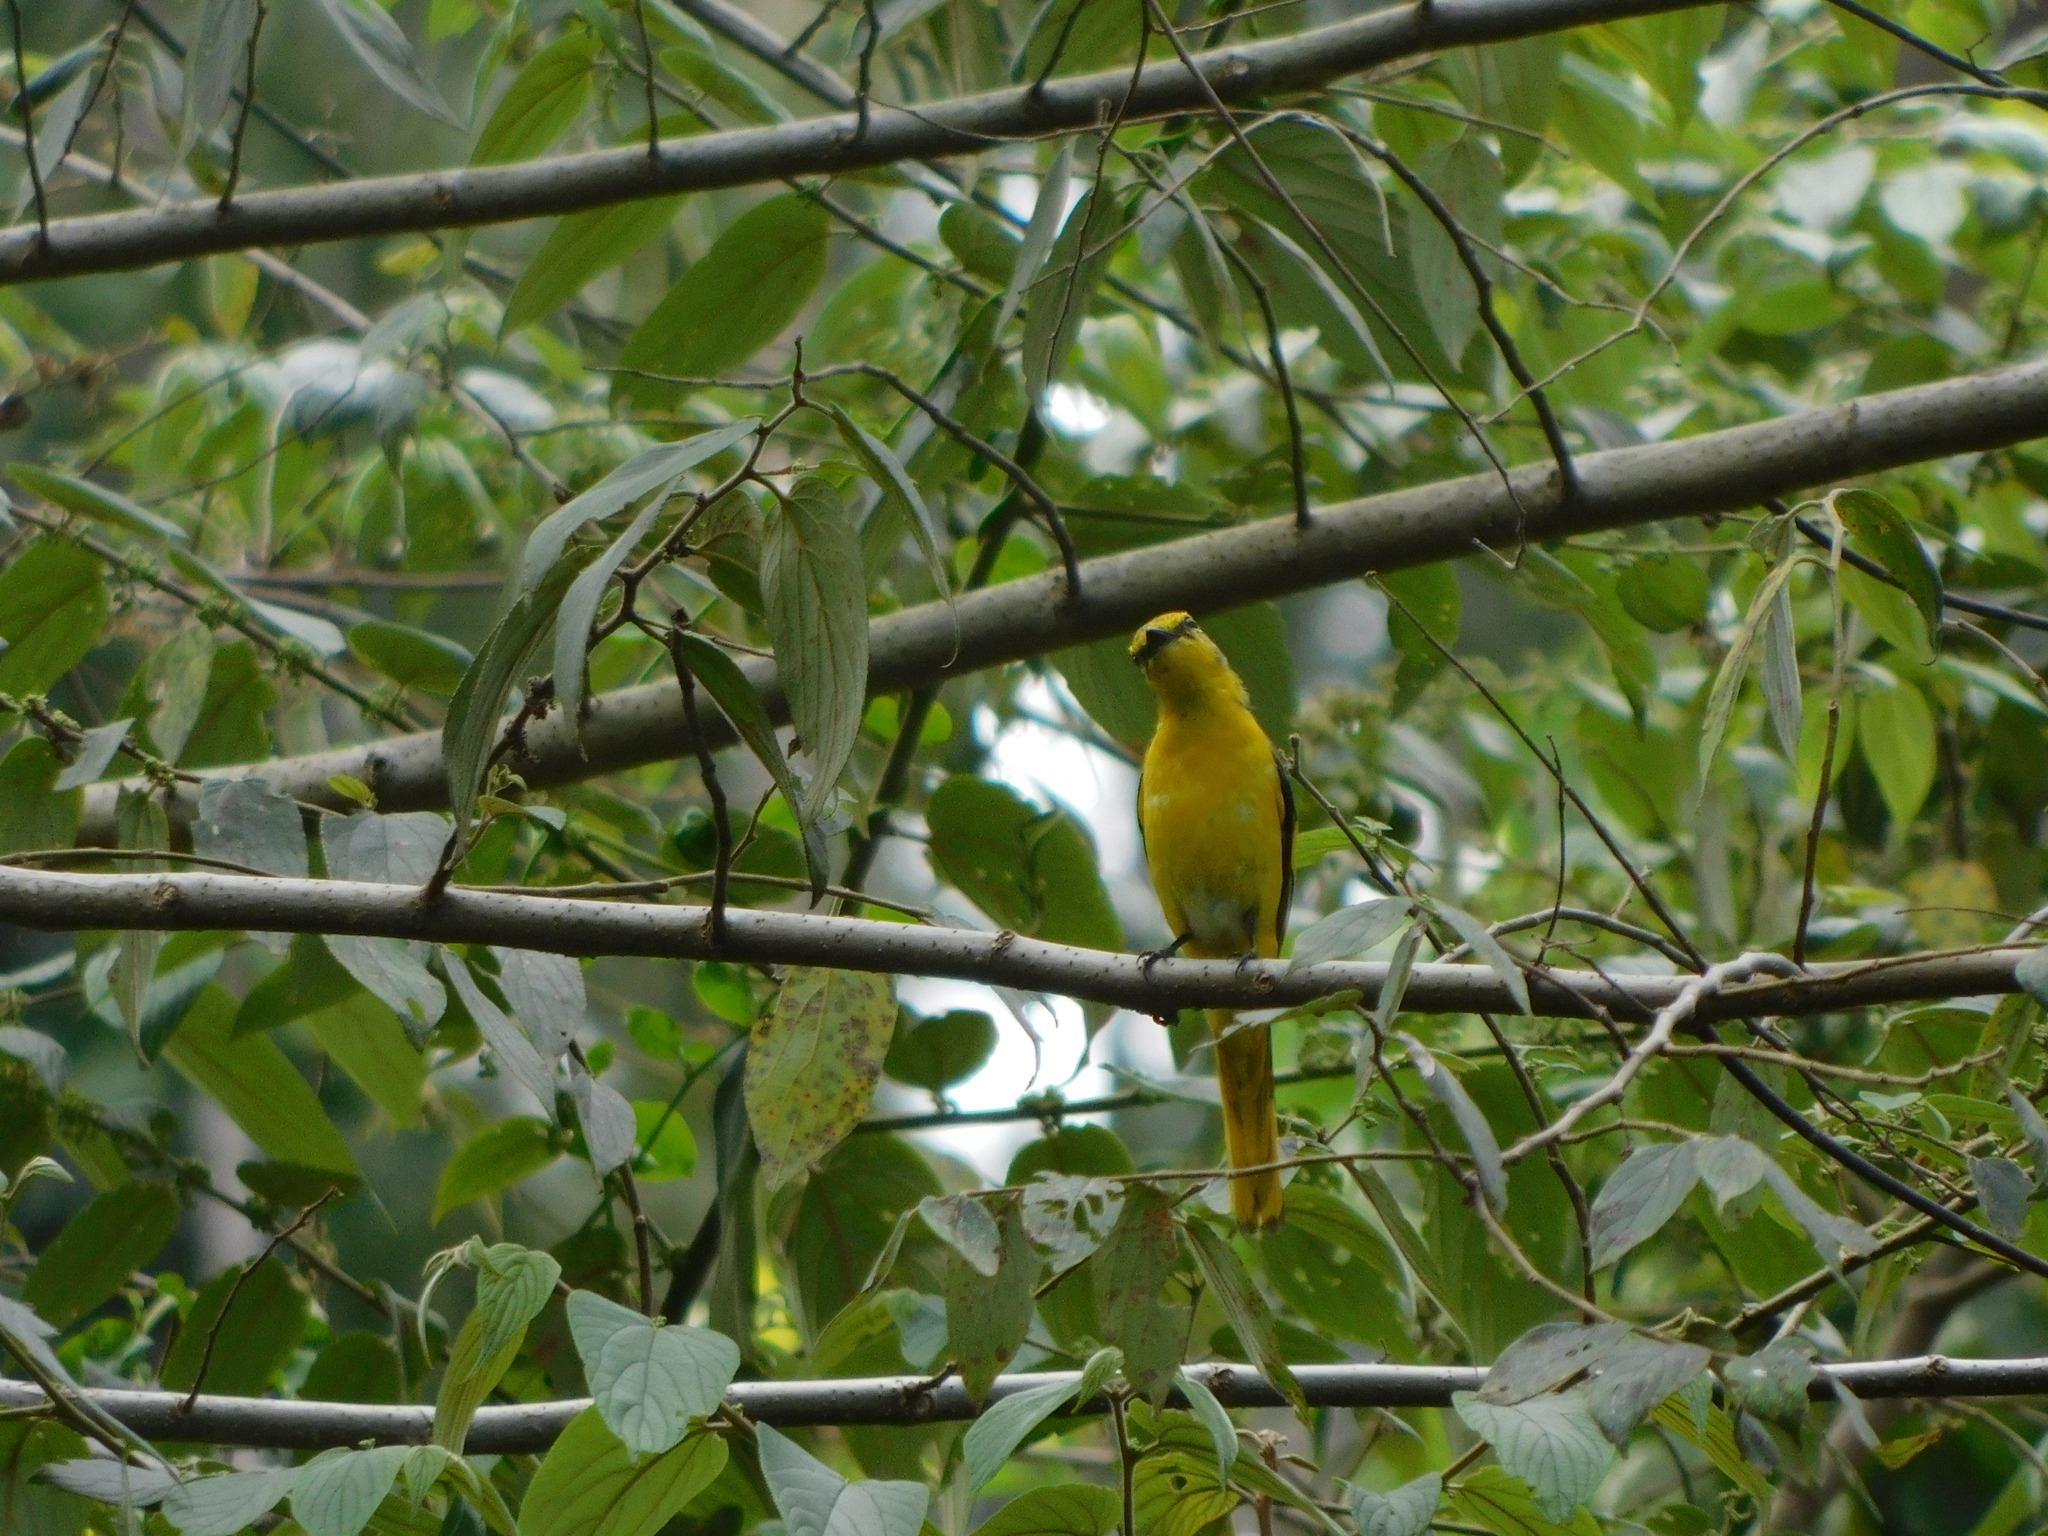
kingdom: Animalia
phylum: Chordata
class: Aves
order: Passeriformes
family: Campephagidae
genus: Pericrocotus
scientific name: Pericrocotus flammeus
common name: Orange minivet
